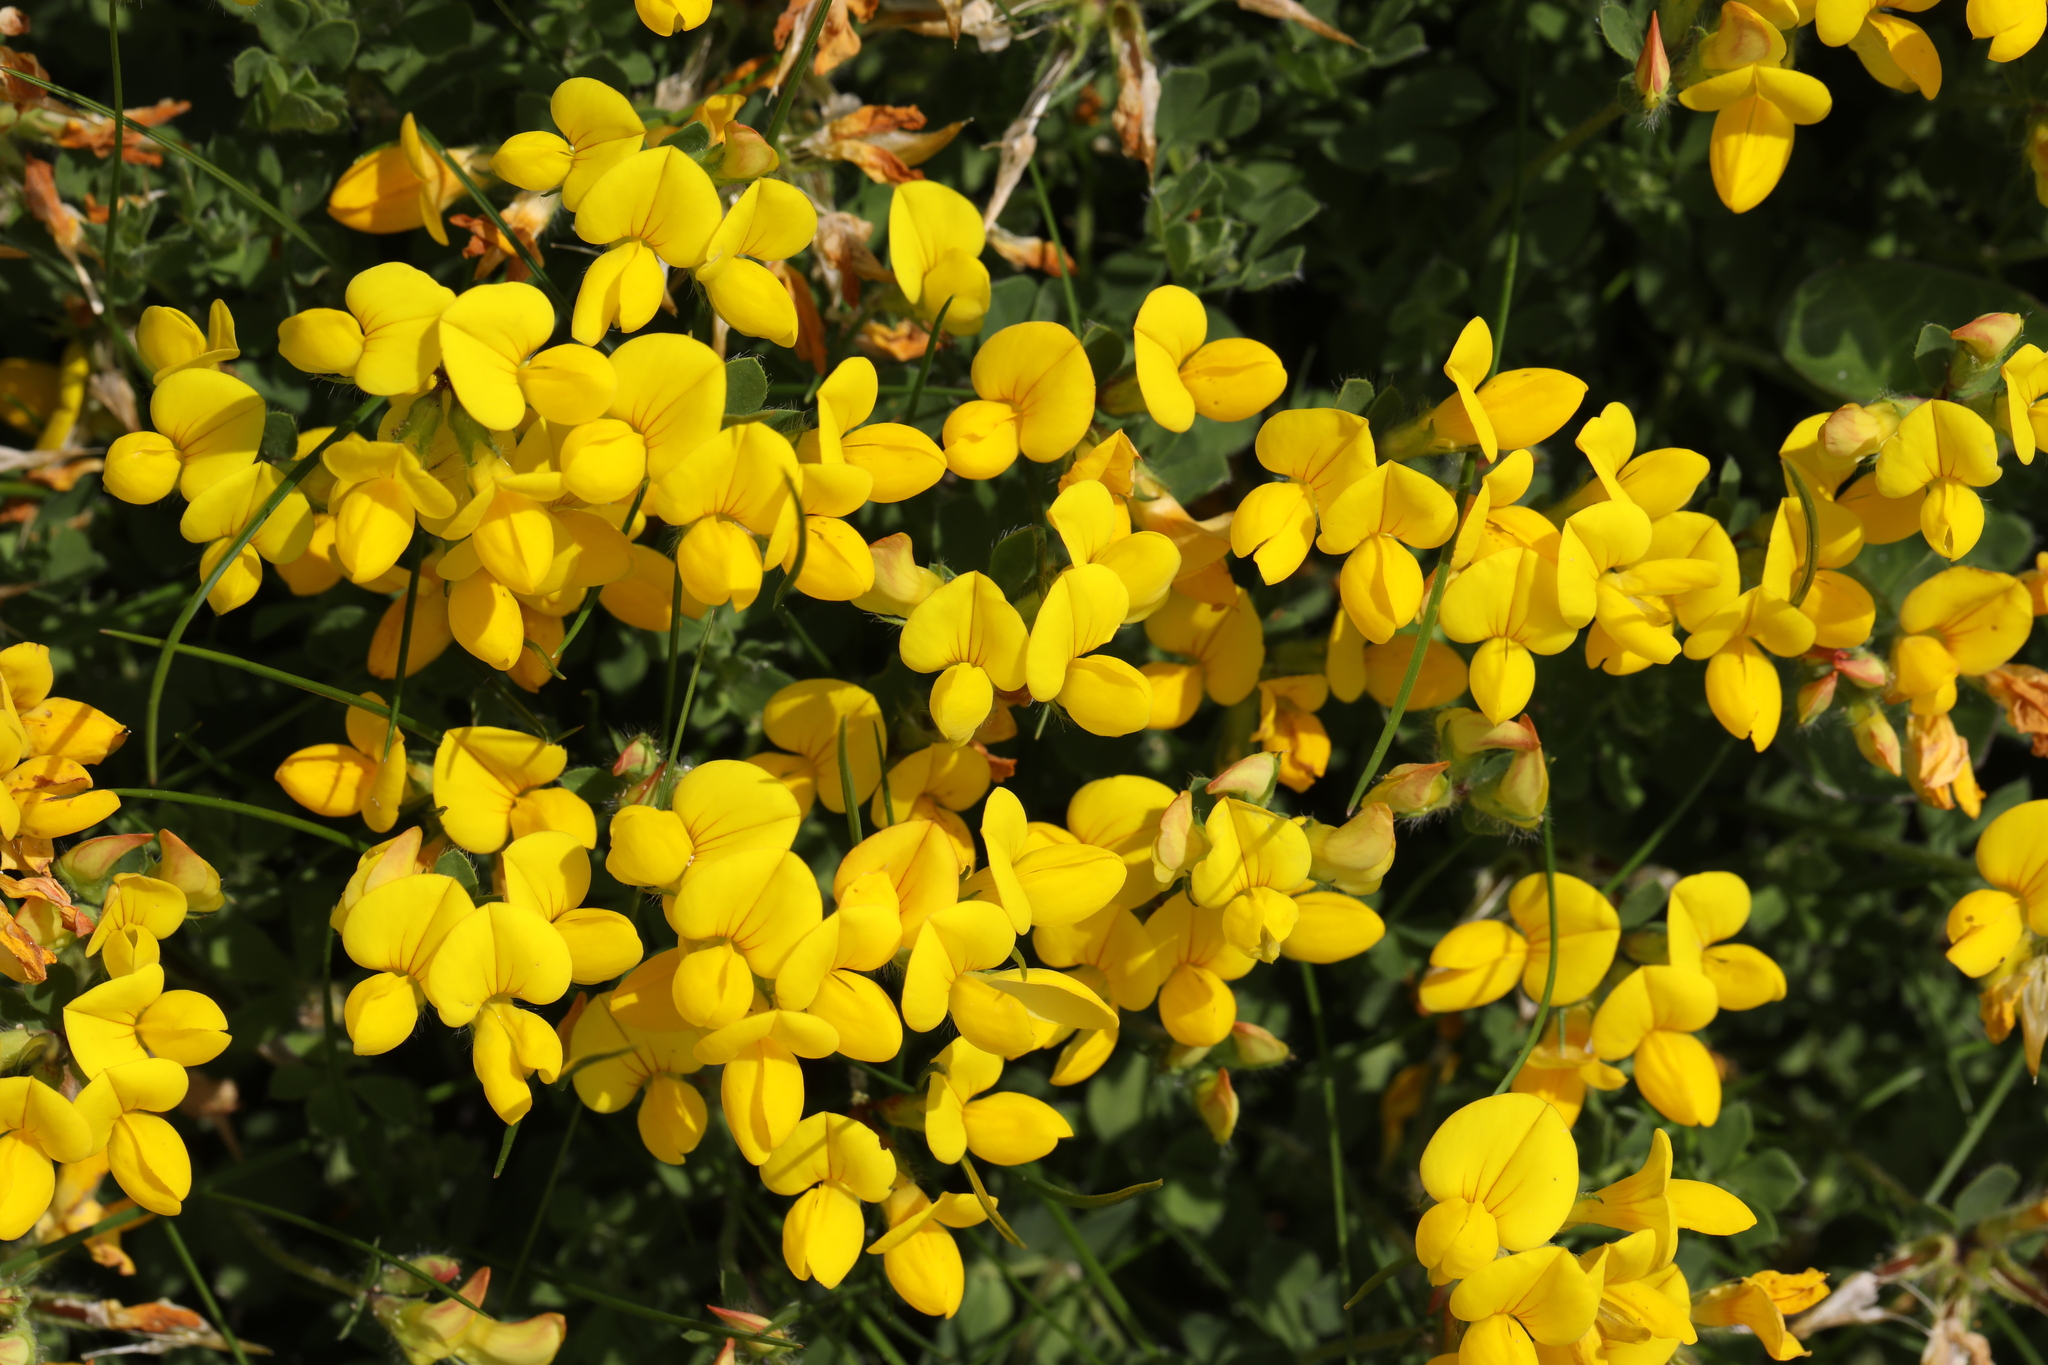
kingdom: Plantae
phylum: Tracheophyta
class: Magnoliopsida
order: Fabales
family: Fabaceae
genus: Lotus
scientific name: Lotus corniculatus
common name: Common bird's-foot-trefoil
